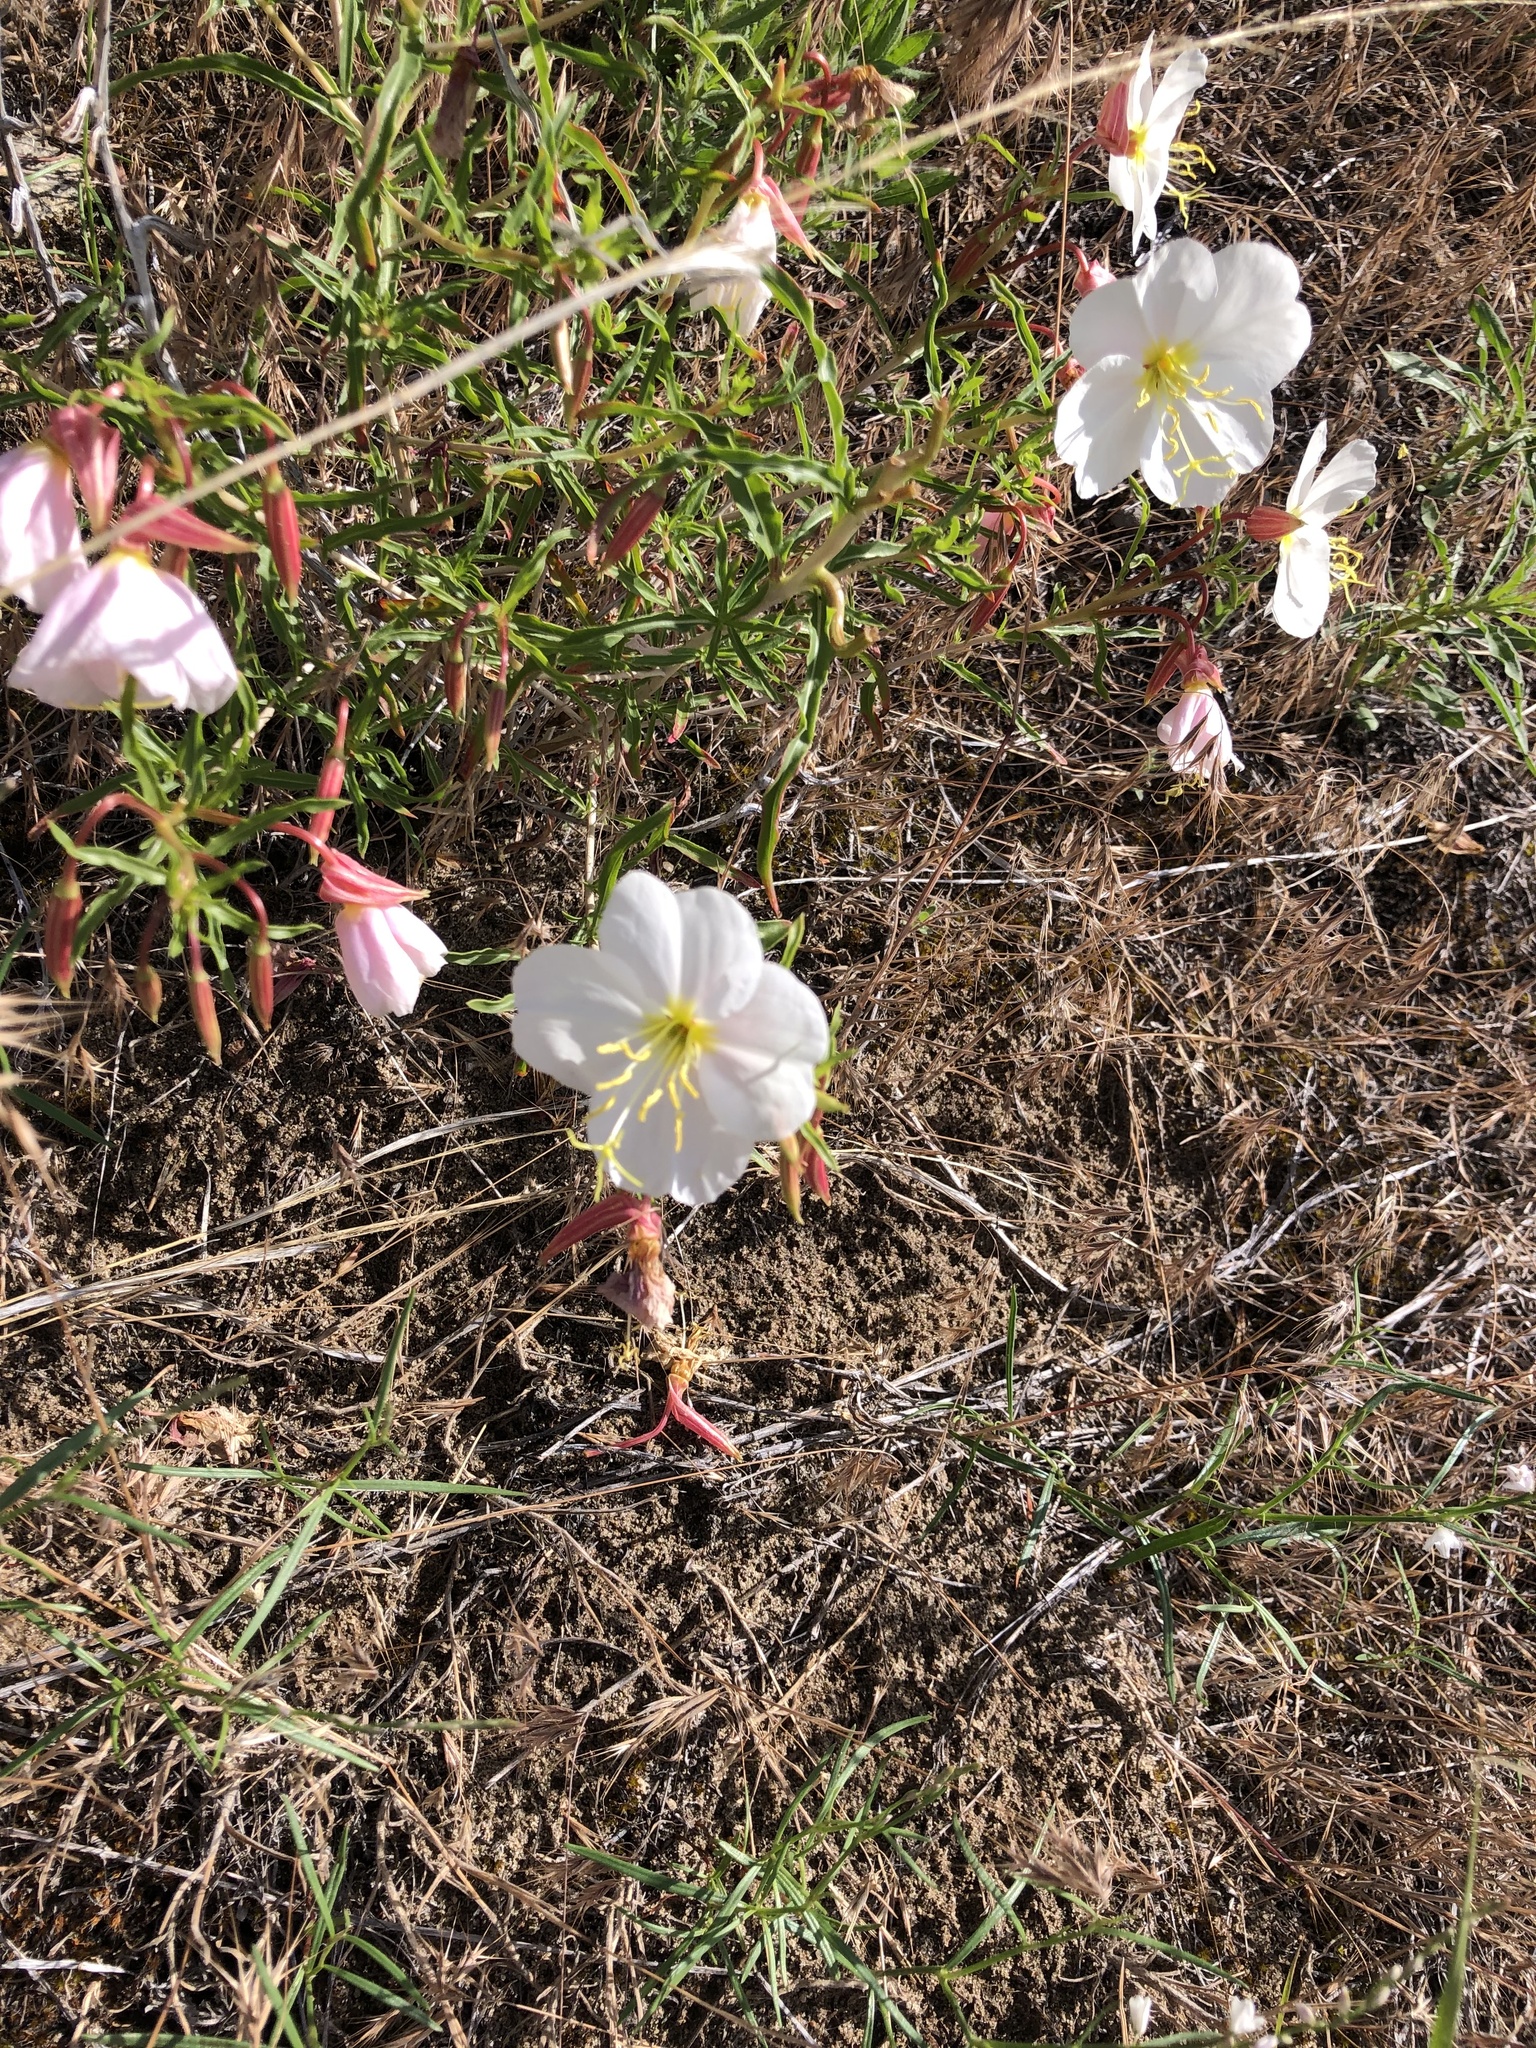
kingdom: Plantae
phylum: Tracheophyta
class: Magnoliopsida
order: Myrtales
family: Onagraceae
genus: Oenothera
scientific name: Oenothera pallida
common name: Pale evening-primrose
